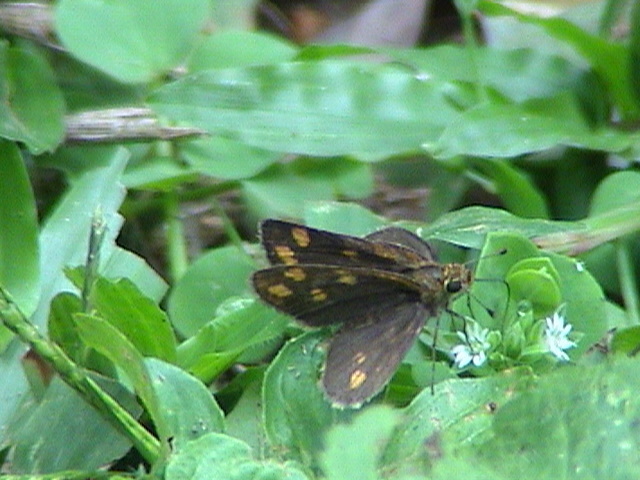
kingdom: Animalia
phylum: Arthropoda
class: Insecta
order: Lepidoptera
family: Hesperiidae
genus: Taractrocera
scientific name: Taractrocera ceramas
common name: Tamil grass dart
